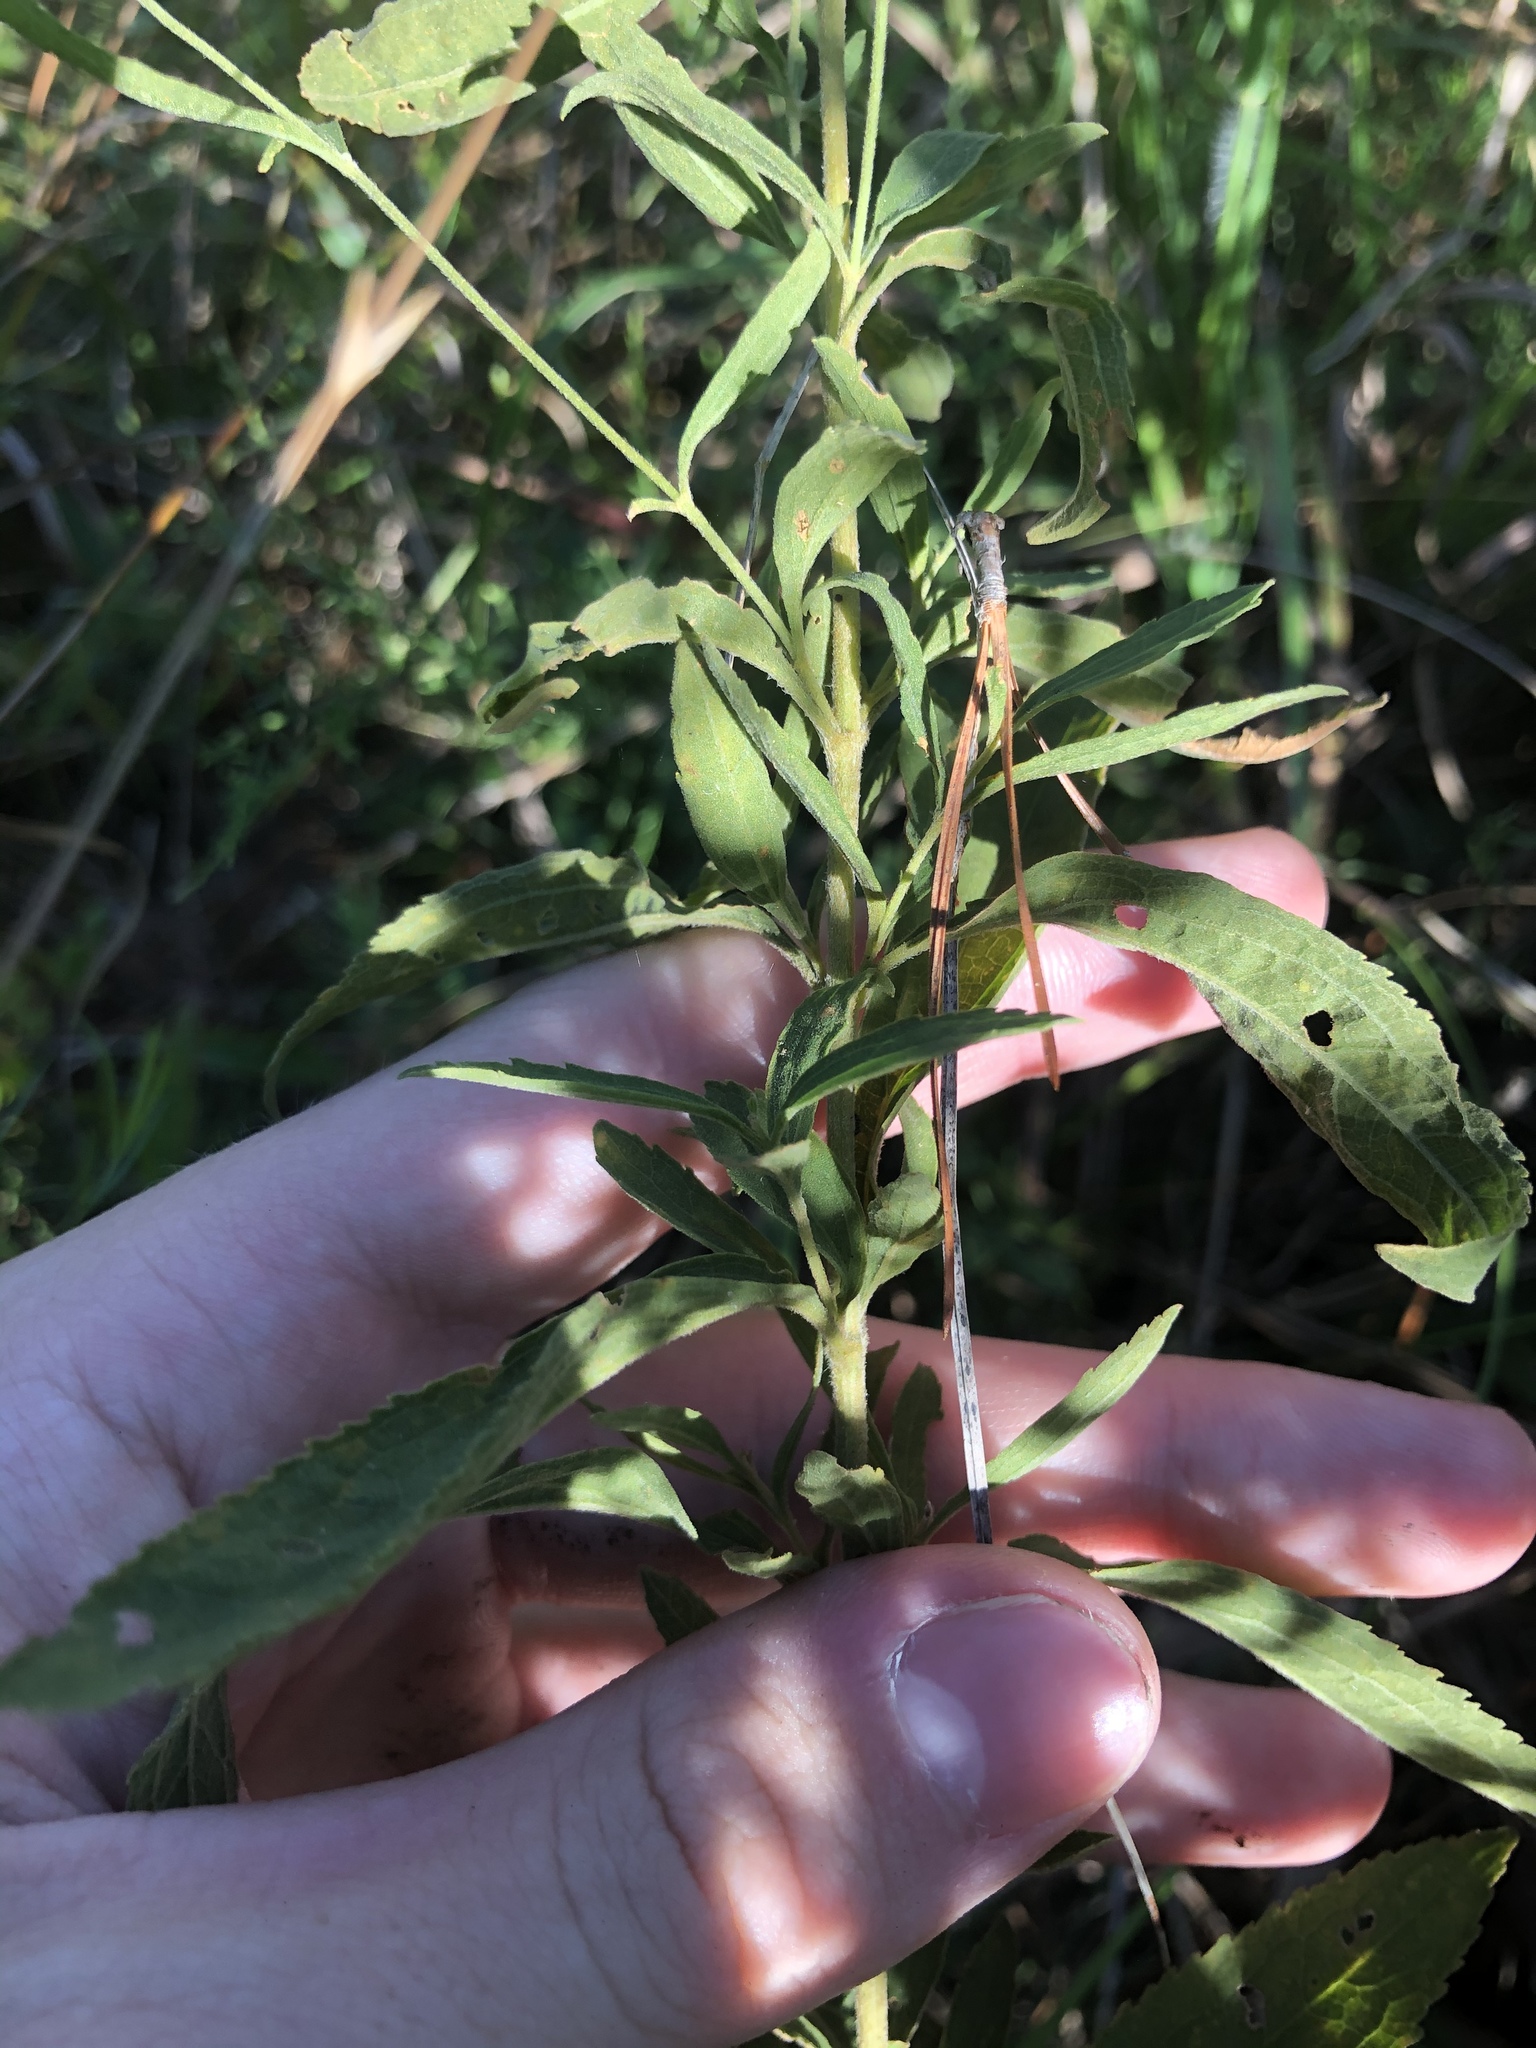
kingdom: Plantae
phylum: Tracheophyta
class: Magnoliopsida
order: Asterales
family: Asteraceae
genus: Eupatorium
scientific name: Eupatorium semiserratum
